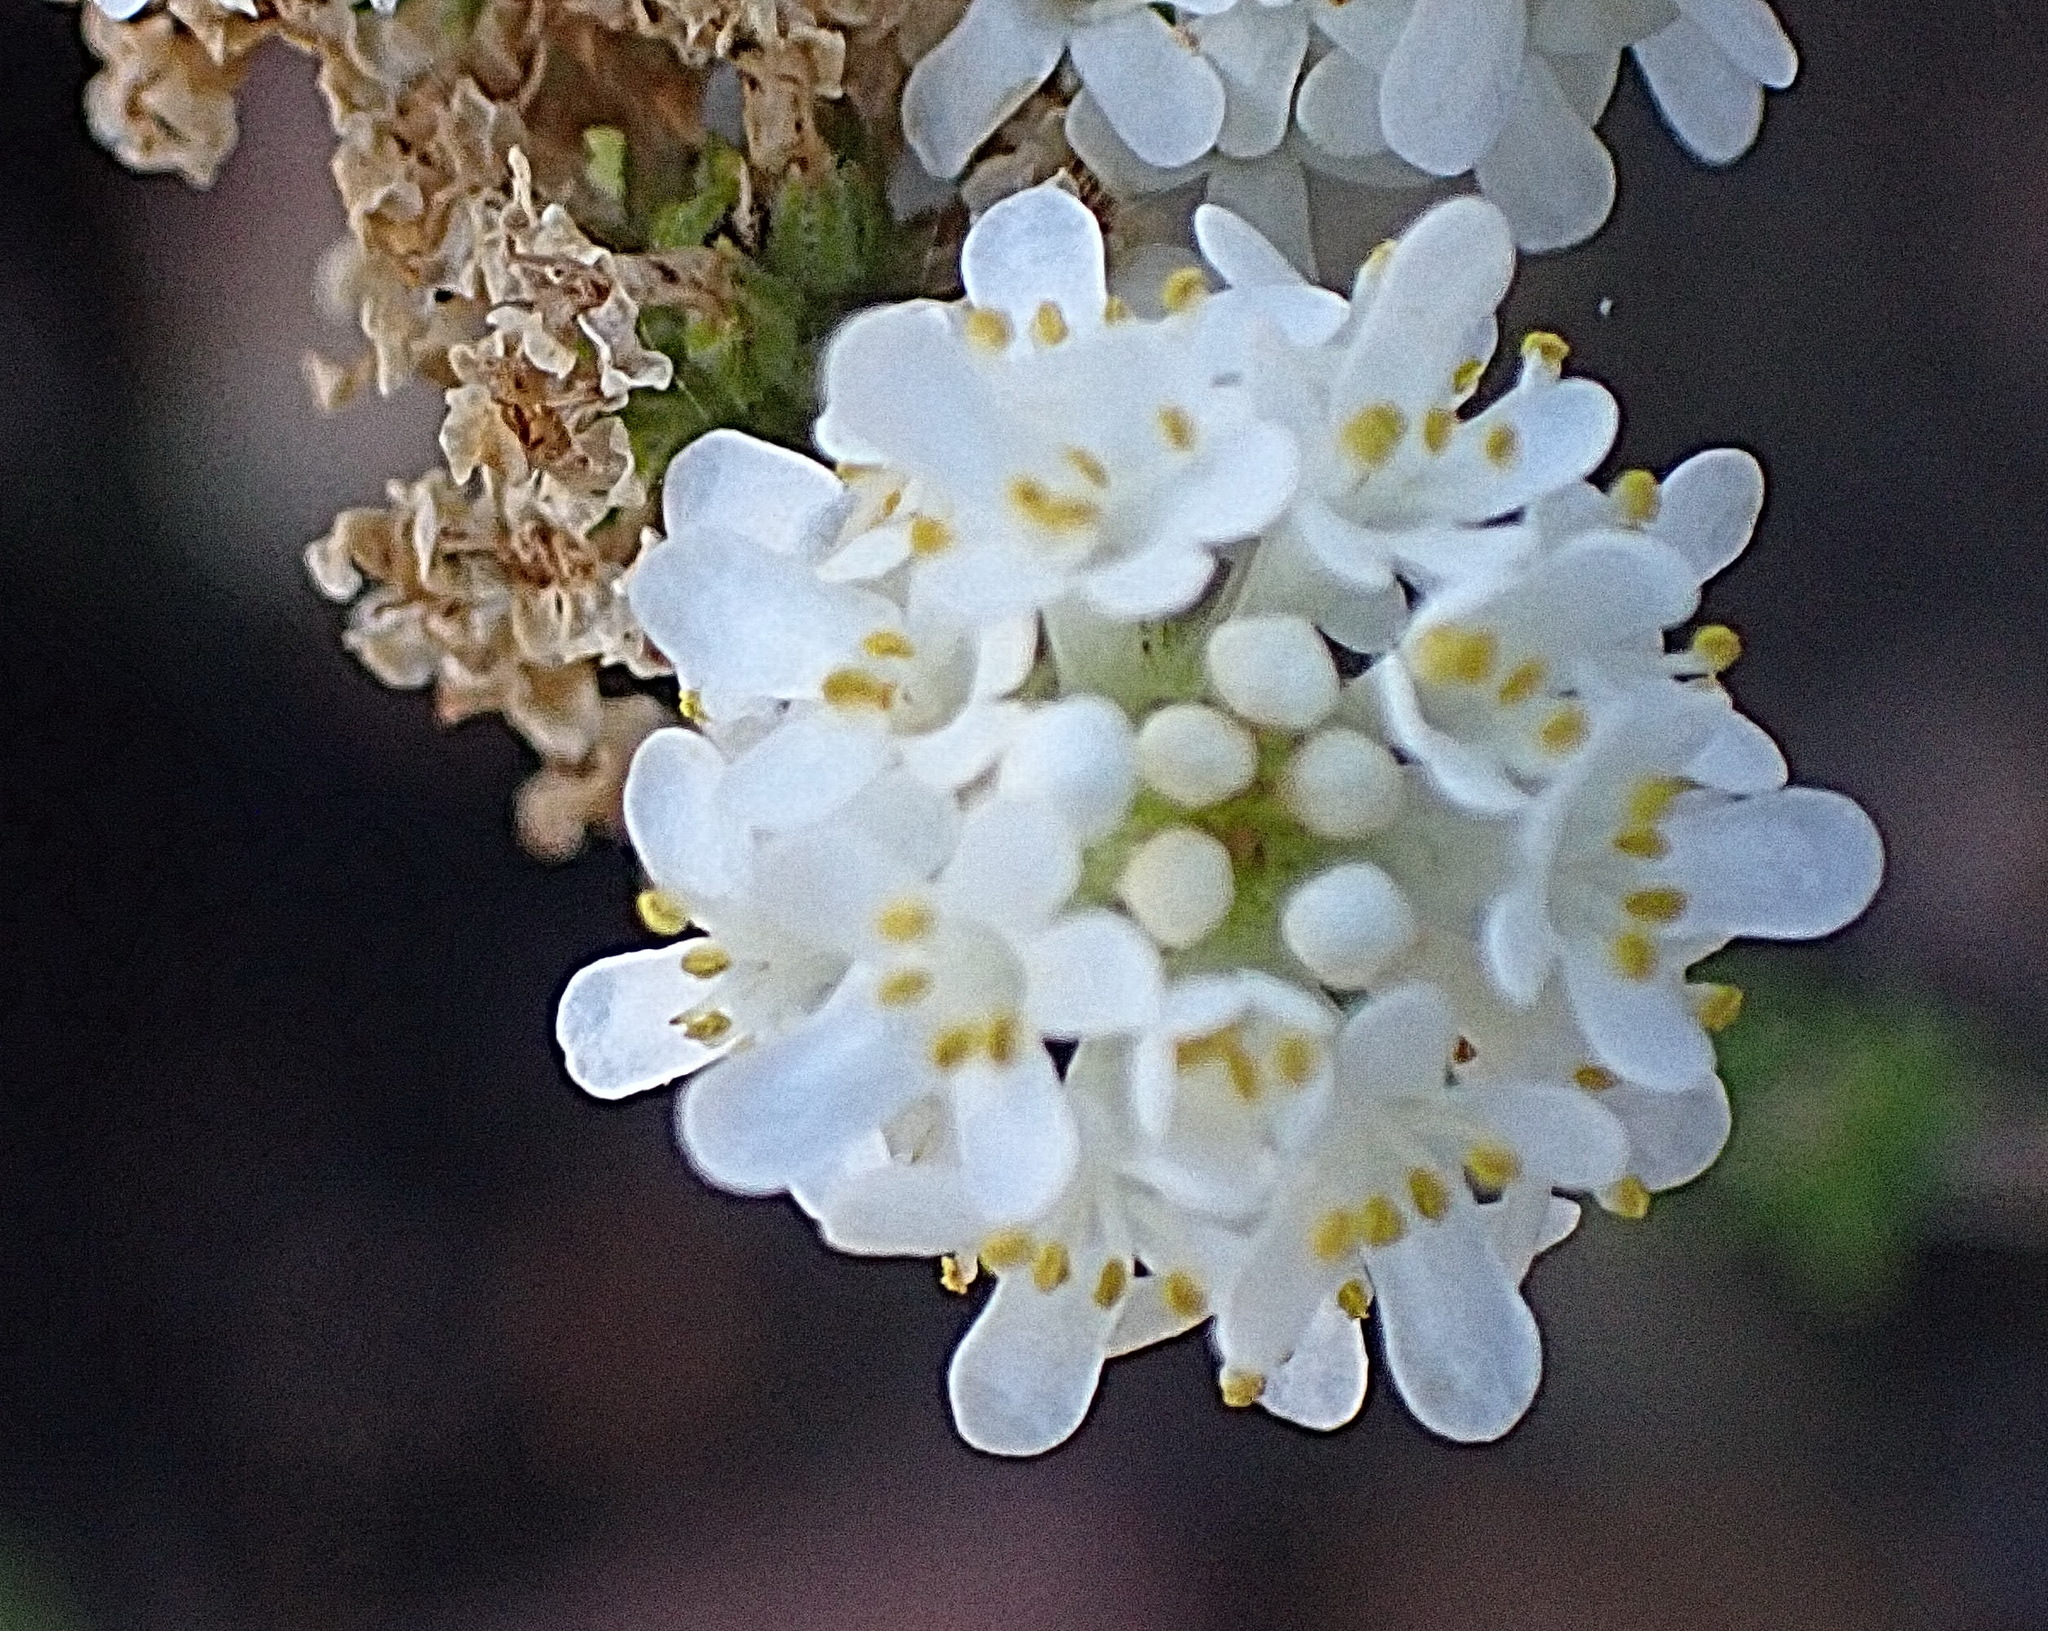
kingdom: Plantae
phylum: Tracheophyta
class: Magnoliopsida
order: Lamiales
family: Scrophulariaceae
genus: Selago
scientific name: Selago glomerata
